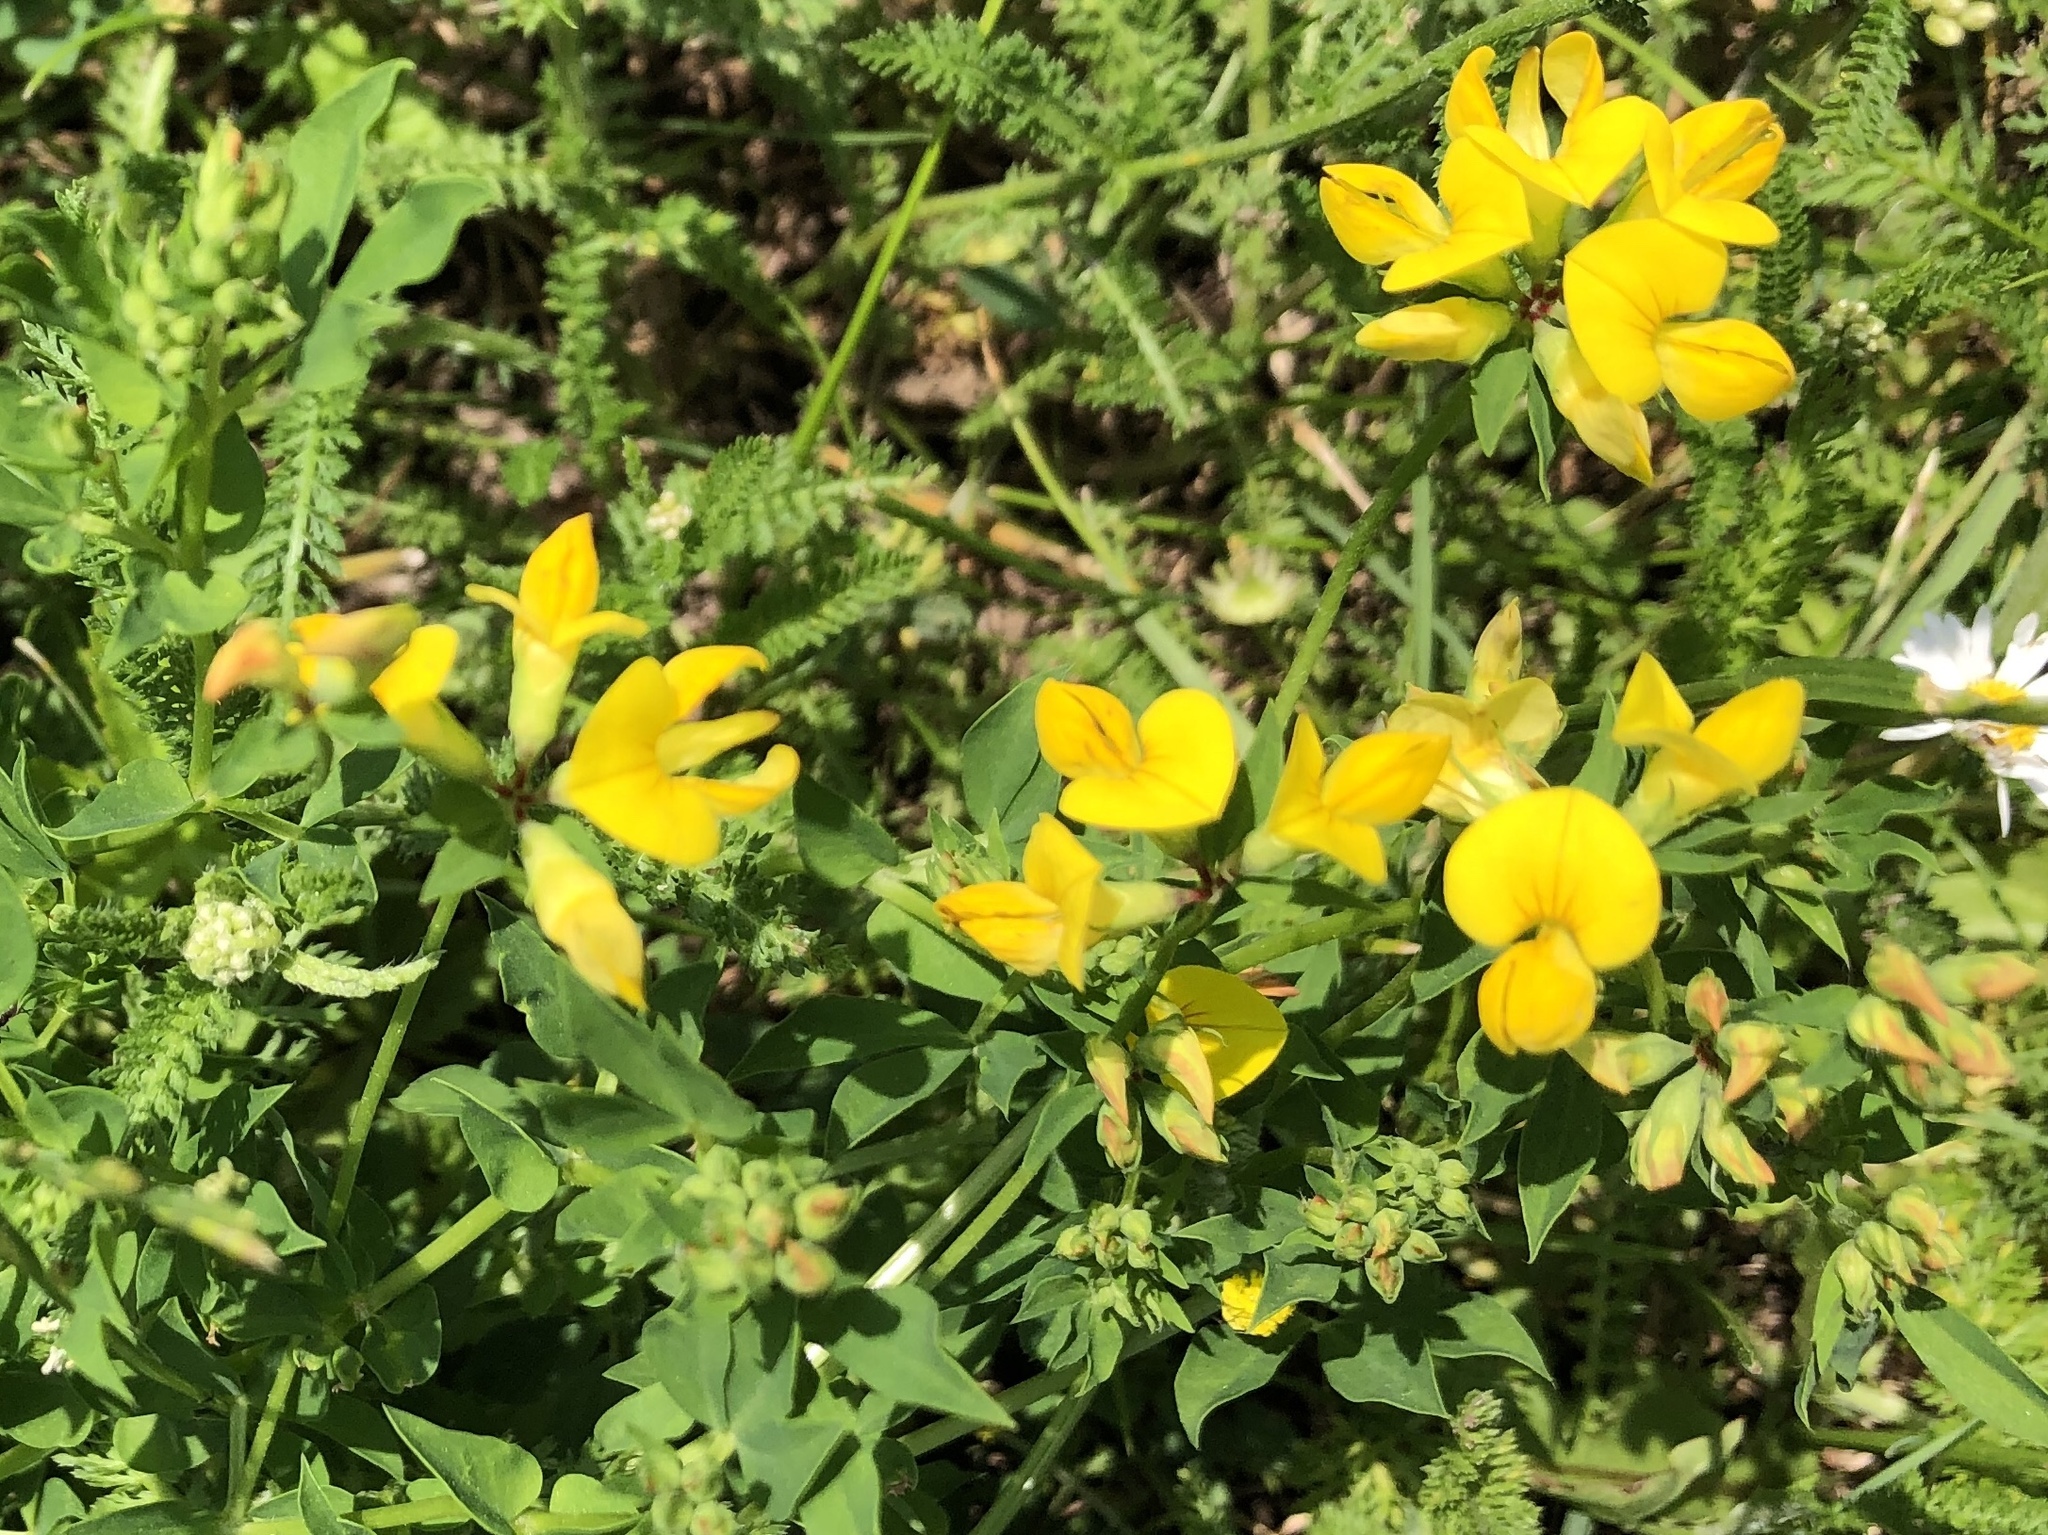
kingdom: Plantae
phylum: Tracheophyta
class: Magnoliopsida
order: Fabales
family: Fabaceae
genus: Lotus
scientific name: Lotus corniculatus
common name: Common bird's-foot-trefoil
